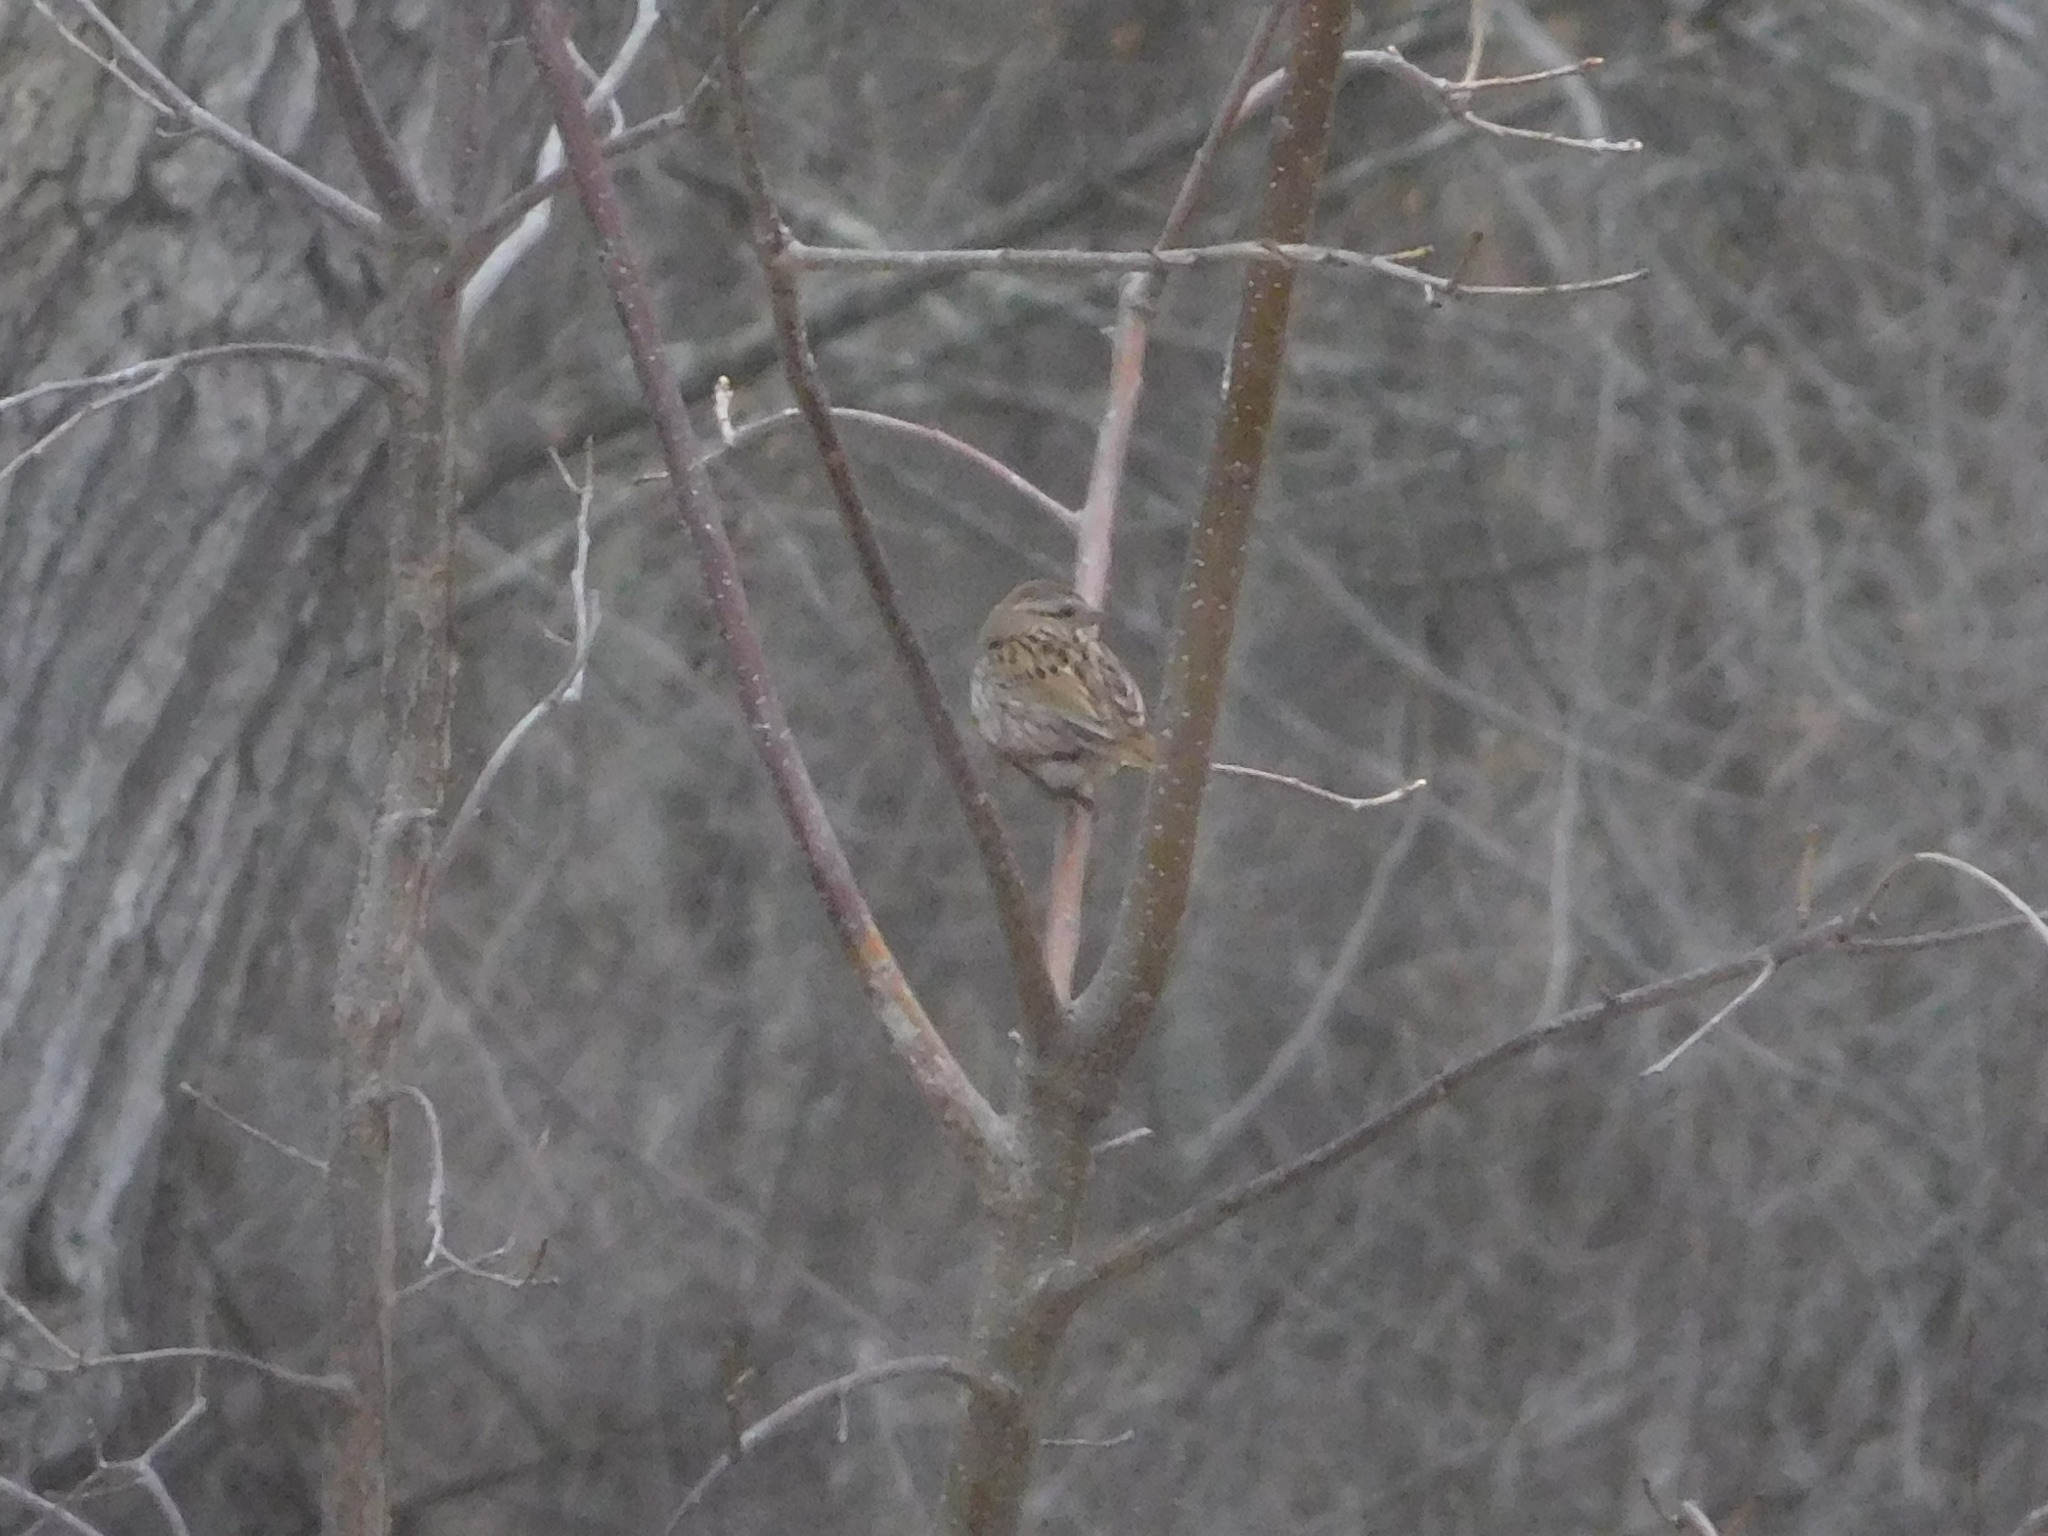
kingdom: Animalia
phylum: Chordata
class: Aves
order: Passeriformes
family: Passerellidae
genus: Melospiza
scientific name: Melospiza melodia
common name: Song sparrow
